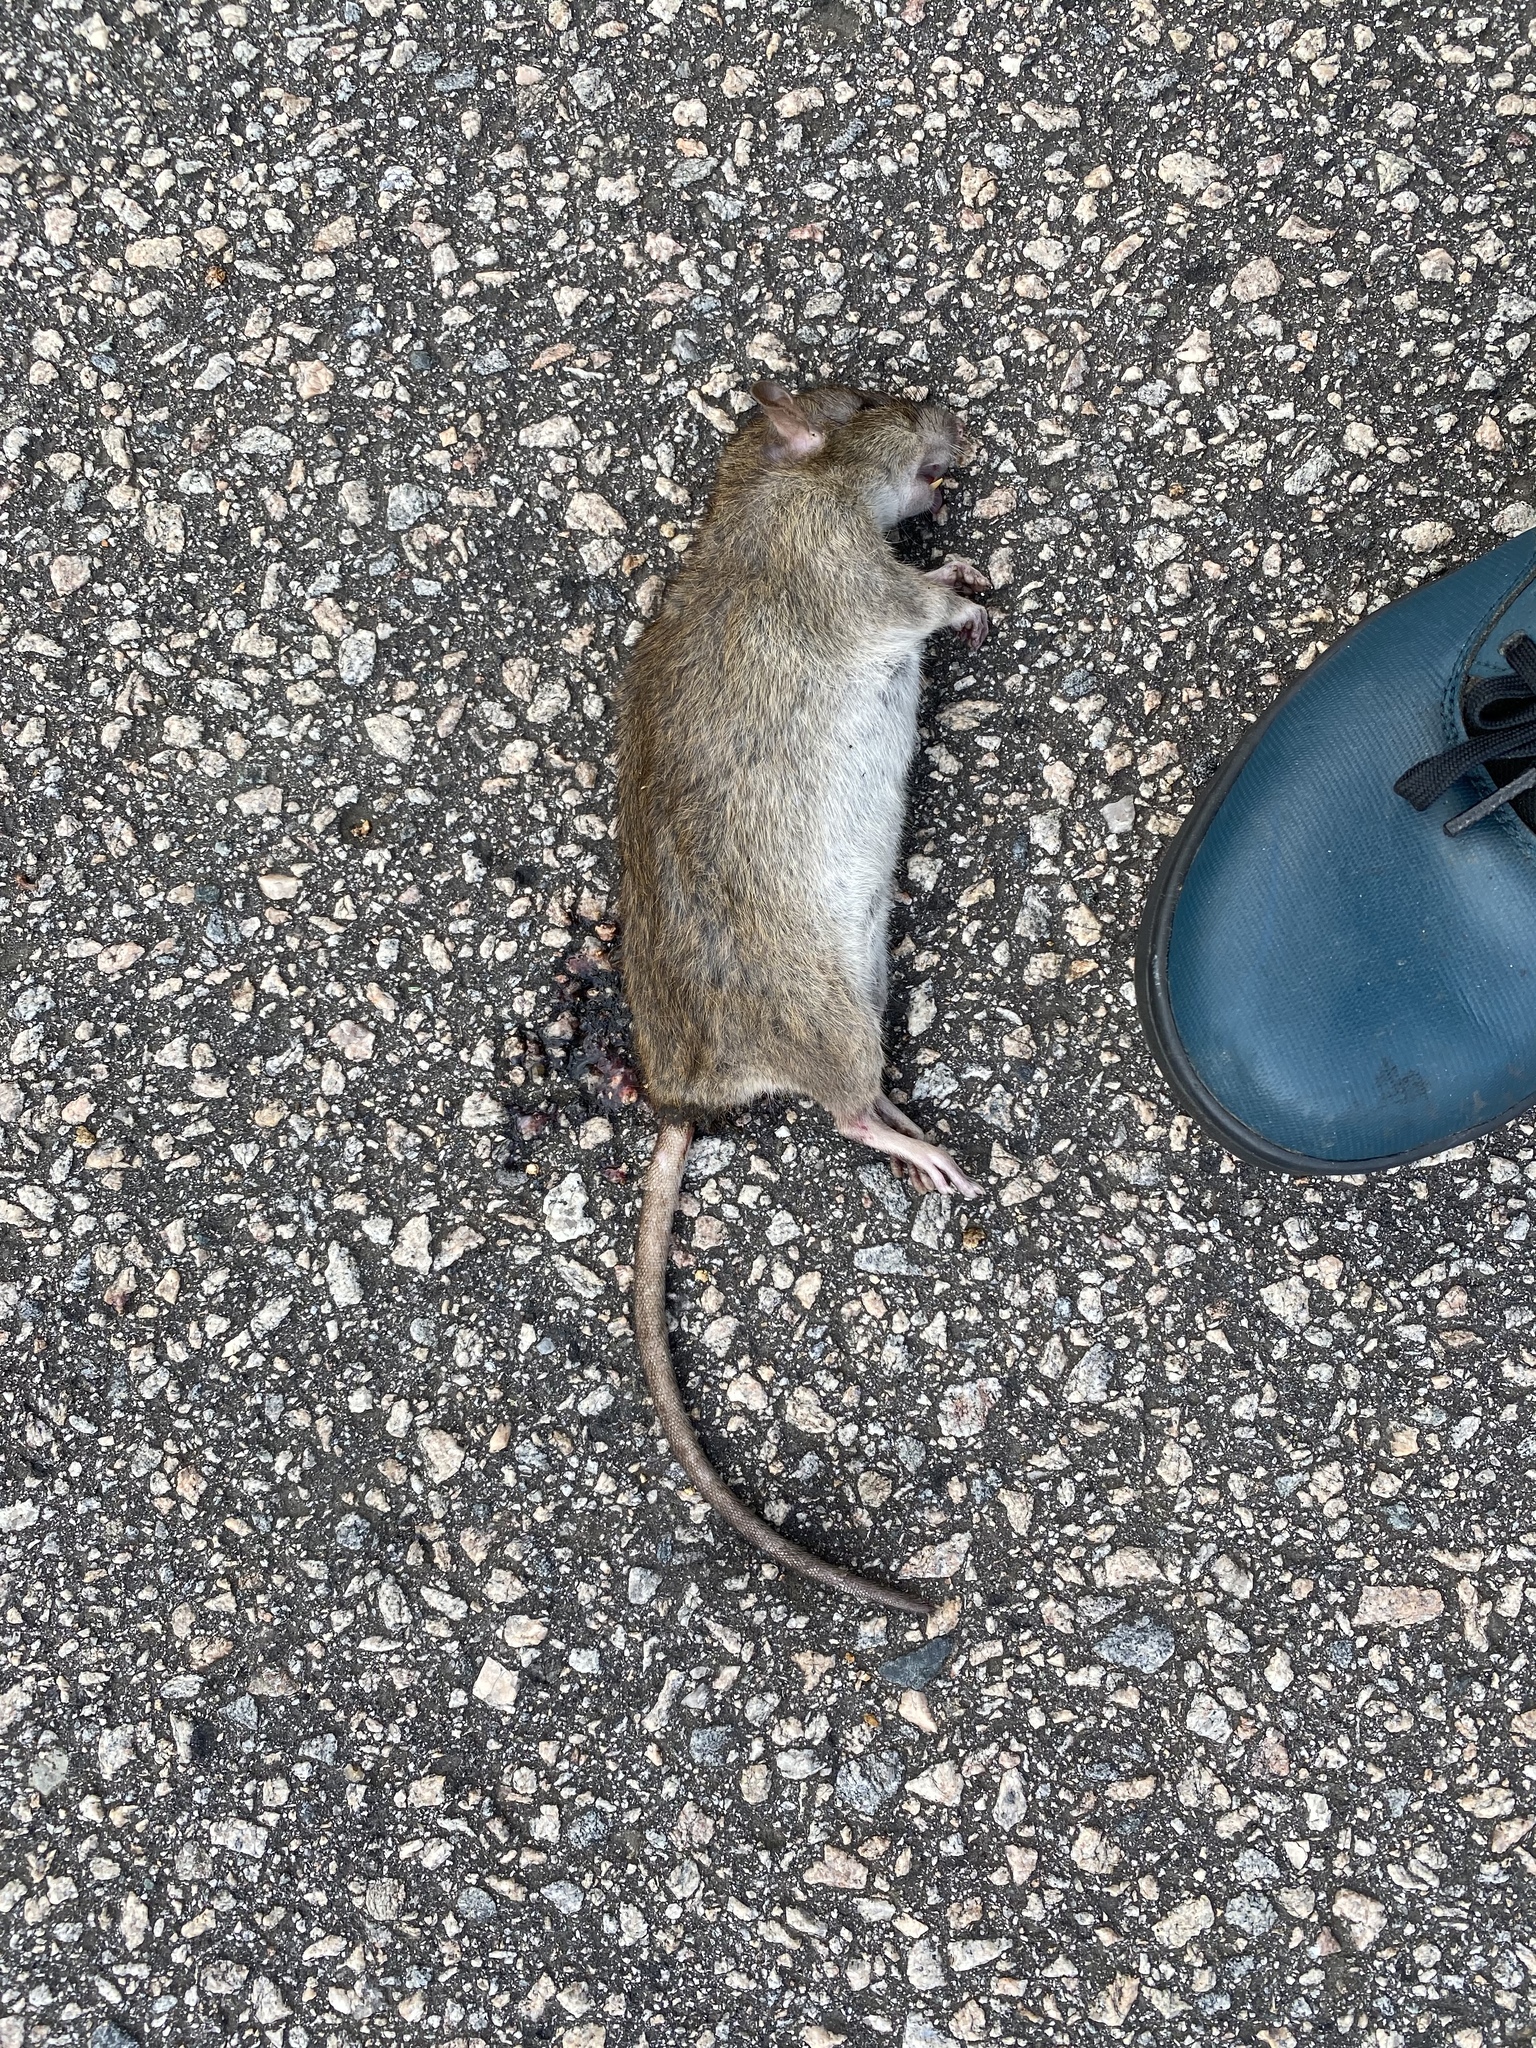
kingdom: Animalia
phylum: Chordata
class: Mammalia
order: Rodentia
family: Muridae
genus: Rattus
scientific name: Rattus norvegicus
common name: Brown rat
